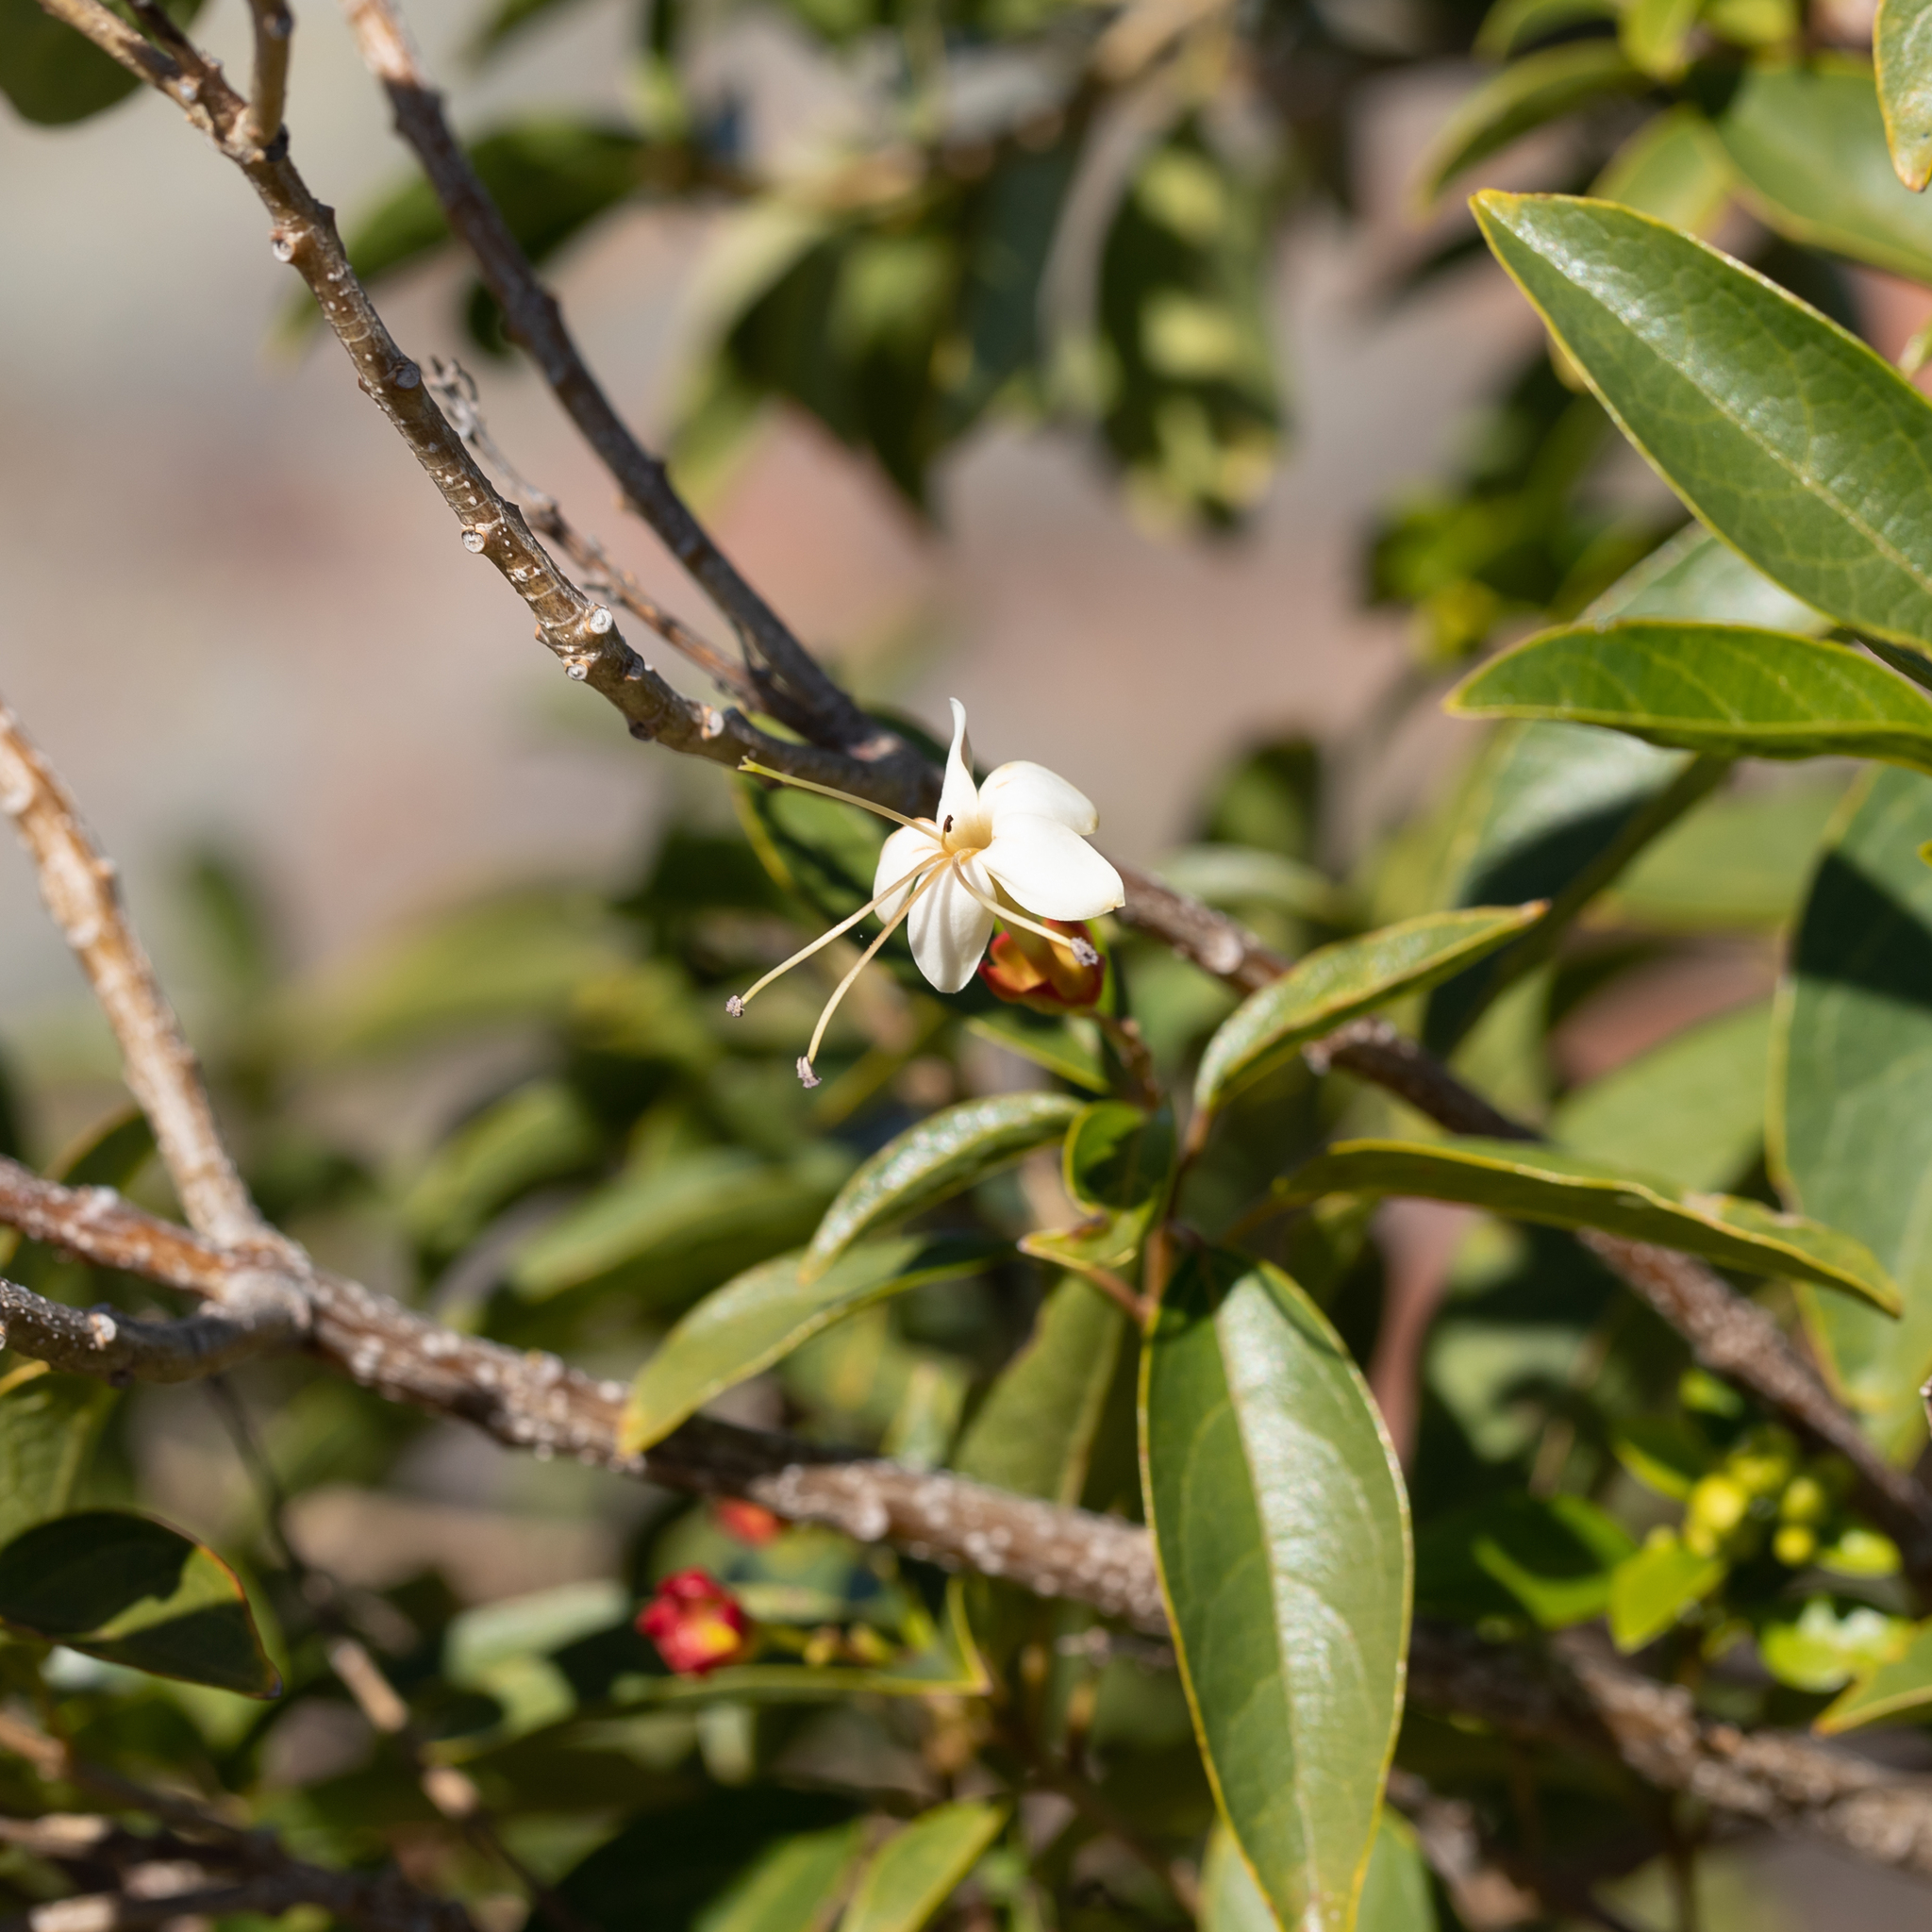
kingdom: Plantae
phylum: Tracheophyta
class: Magnoliopsida
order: Lamiales
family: Lamiaceae
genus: Clerodendrum
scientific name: Clerodendrum floribundum
